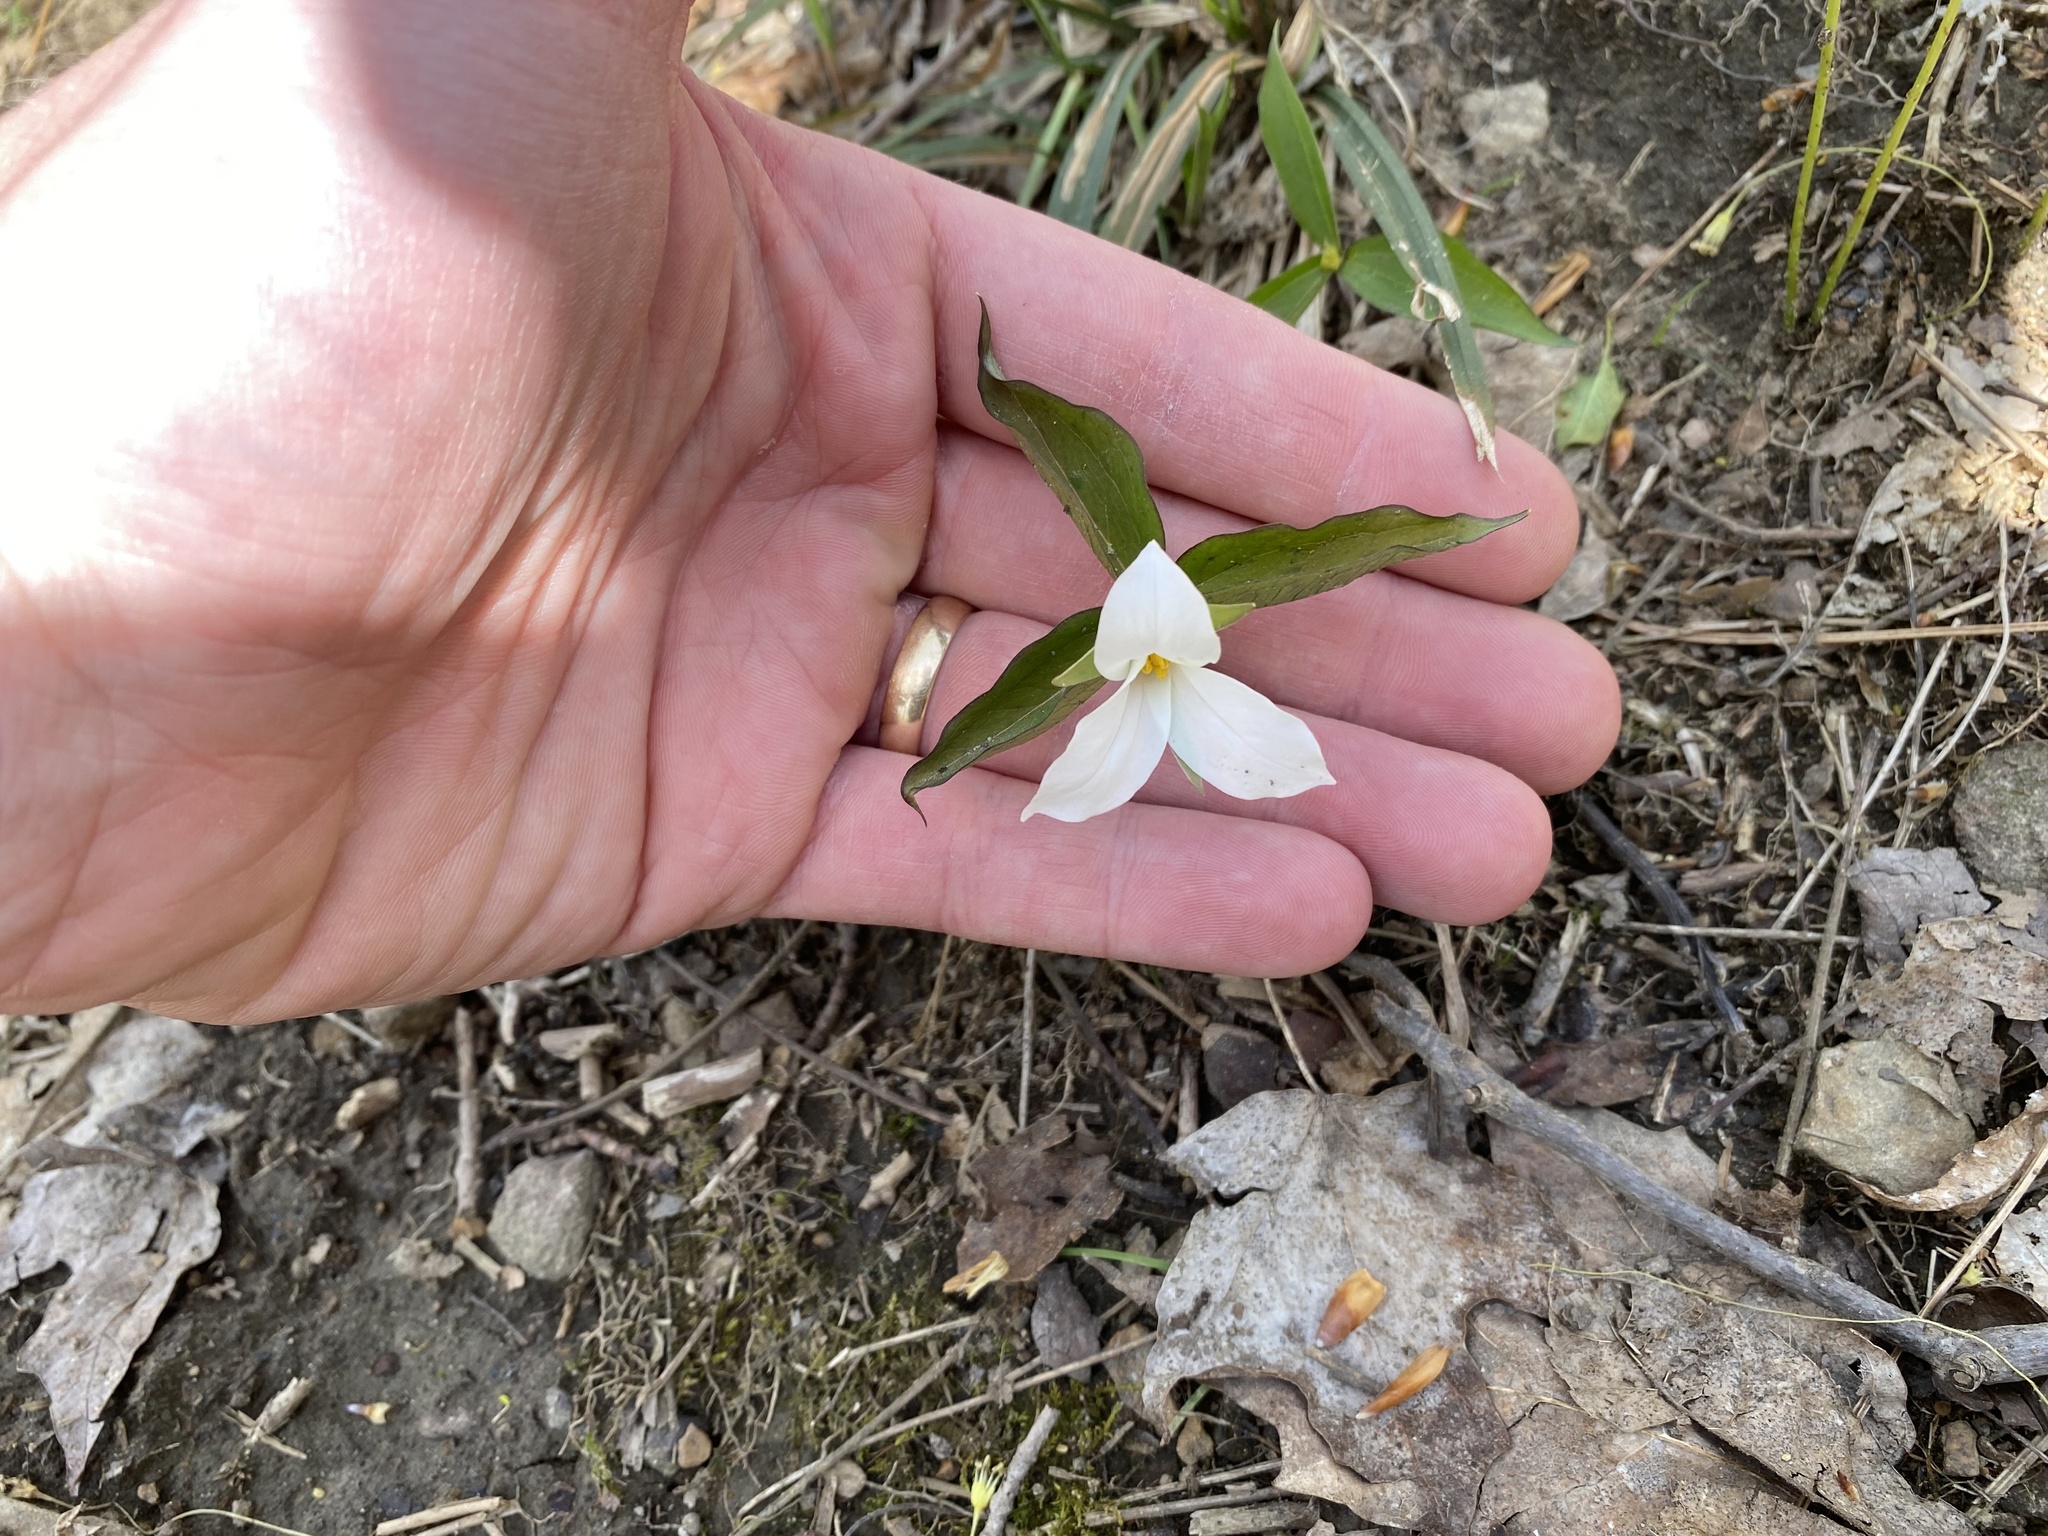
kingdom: Plantae
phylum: Tracheophyta
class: Liliopsida
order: Liliales
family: Melanthiaceae
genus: Trillium
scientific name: Trillium grandiflorum
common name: Great white trillium
